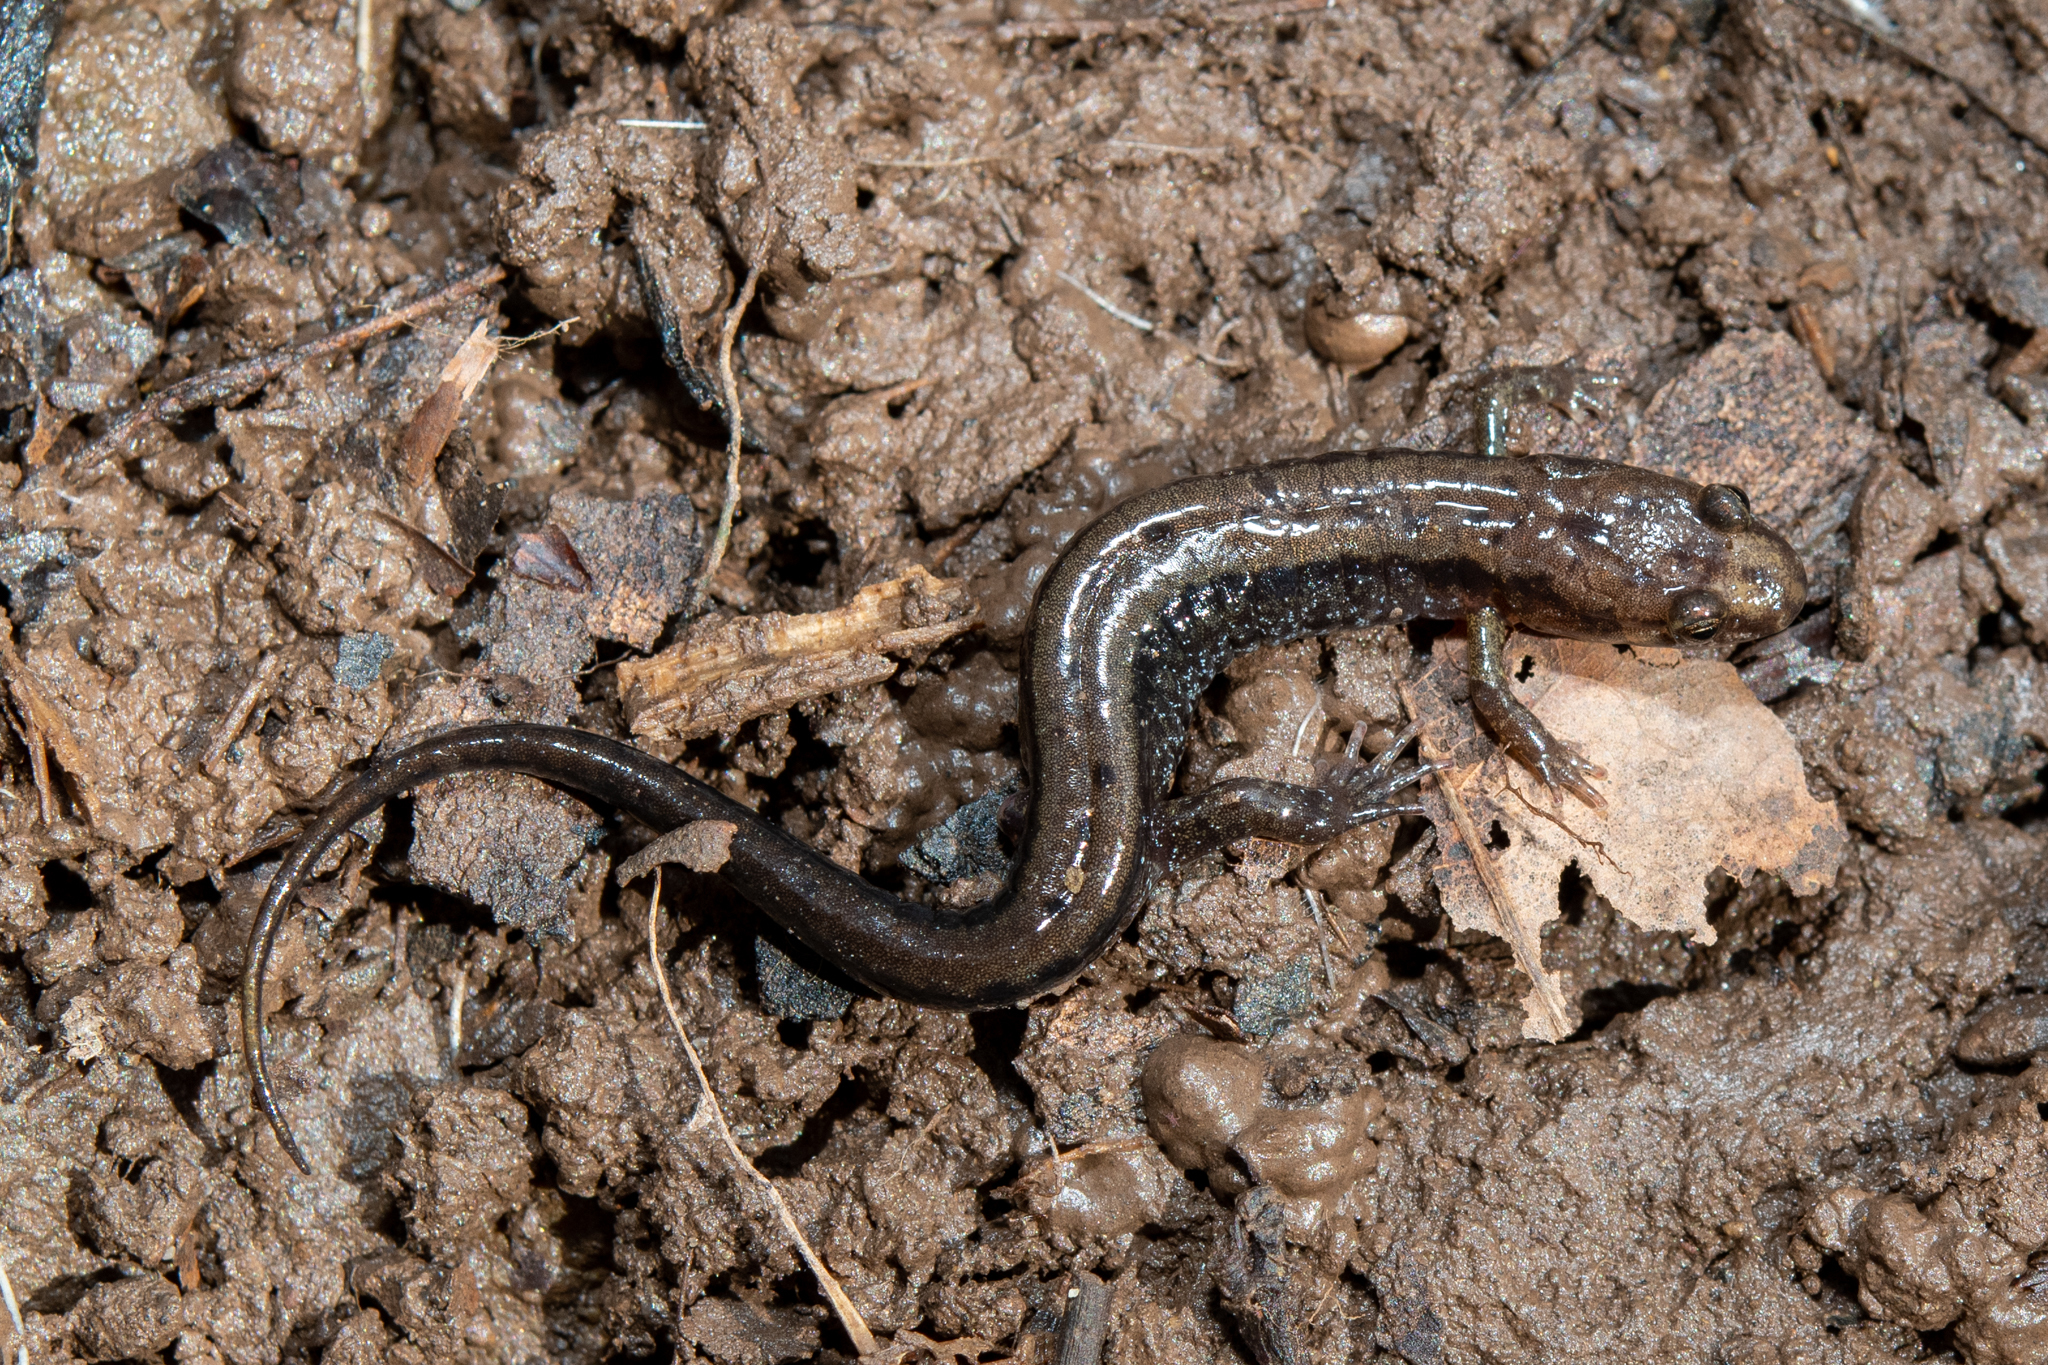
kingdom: Animalia
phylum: Chordata
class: Amphibia
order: Caudata
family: Plethodontidae
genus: Desmognathus
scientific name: Desmognathus ochrophaeus
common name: Allegheny mountain dusky salamander
